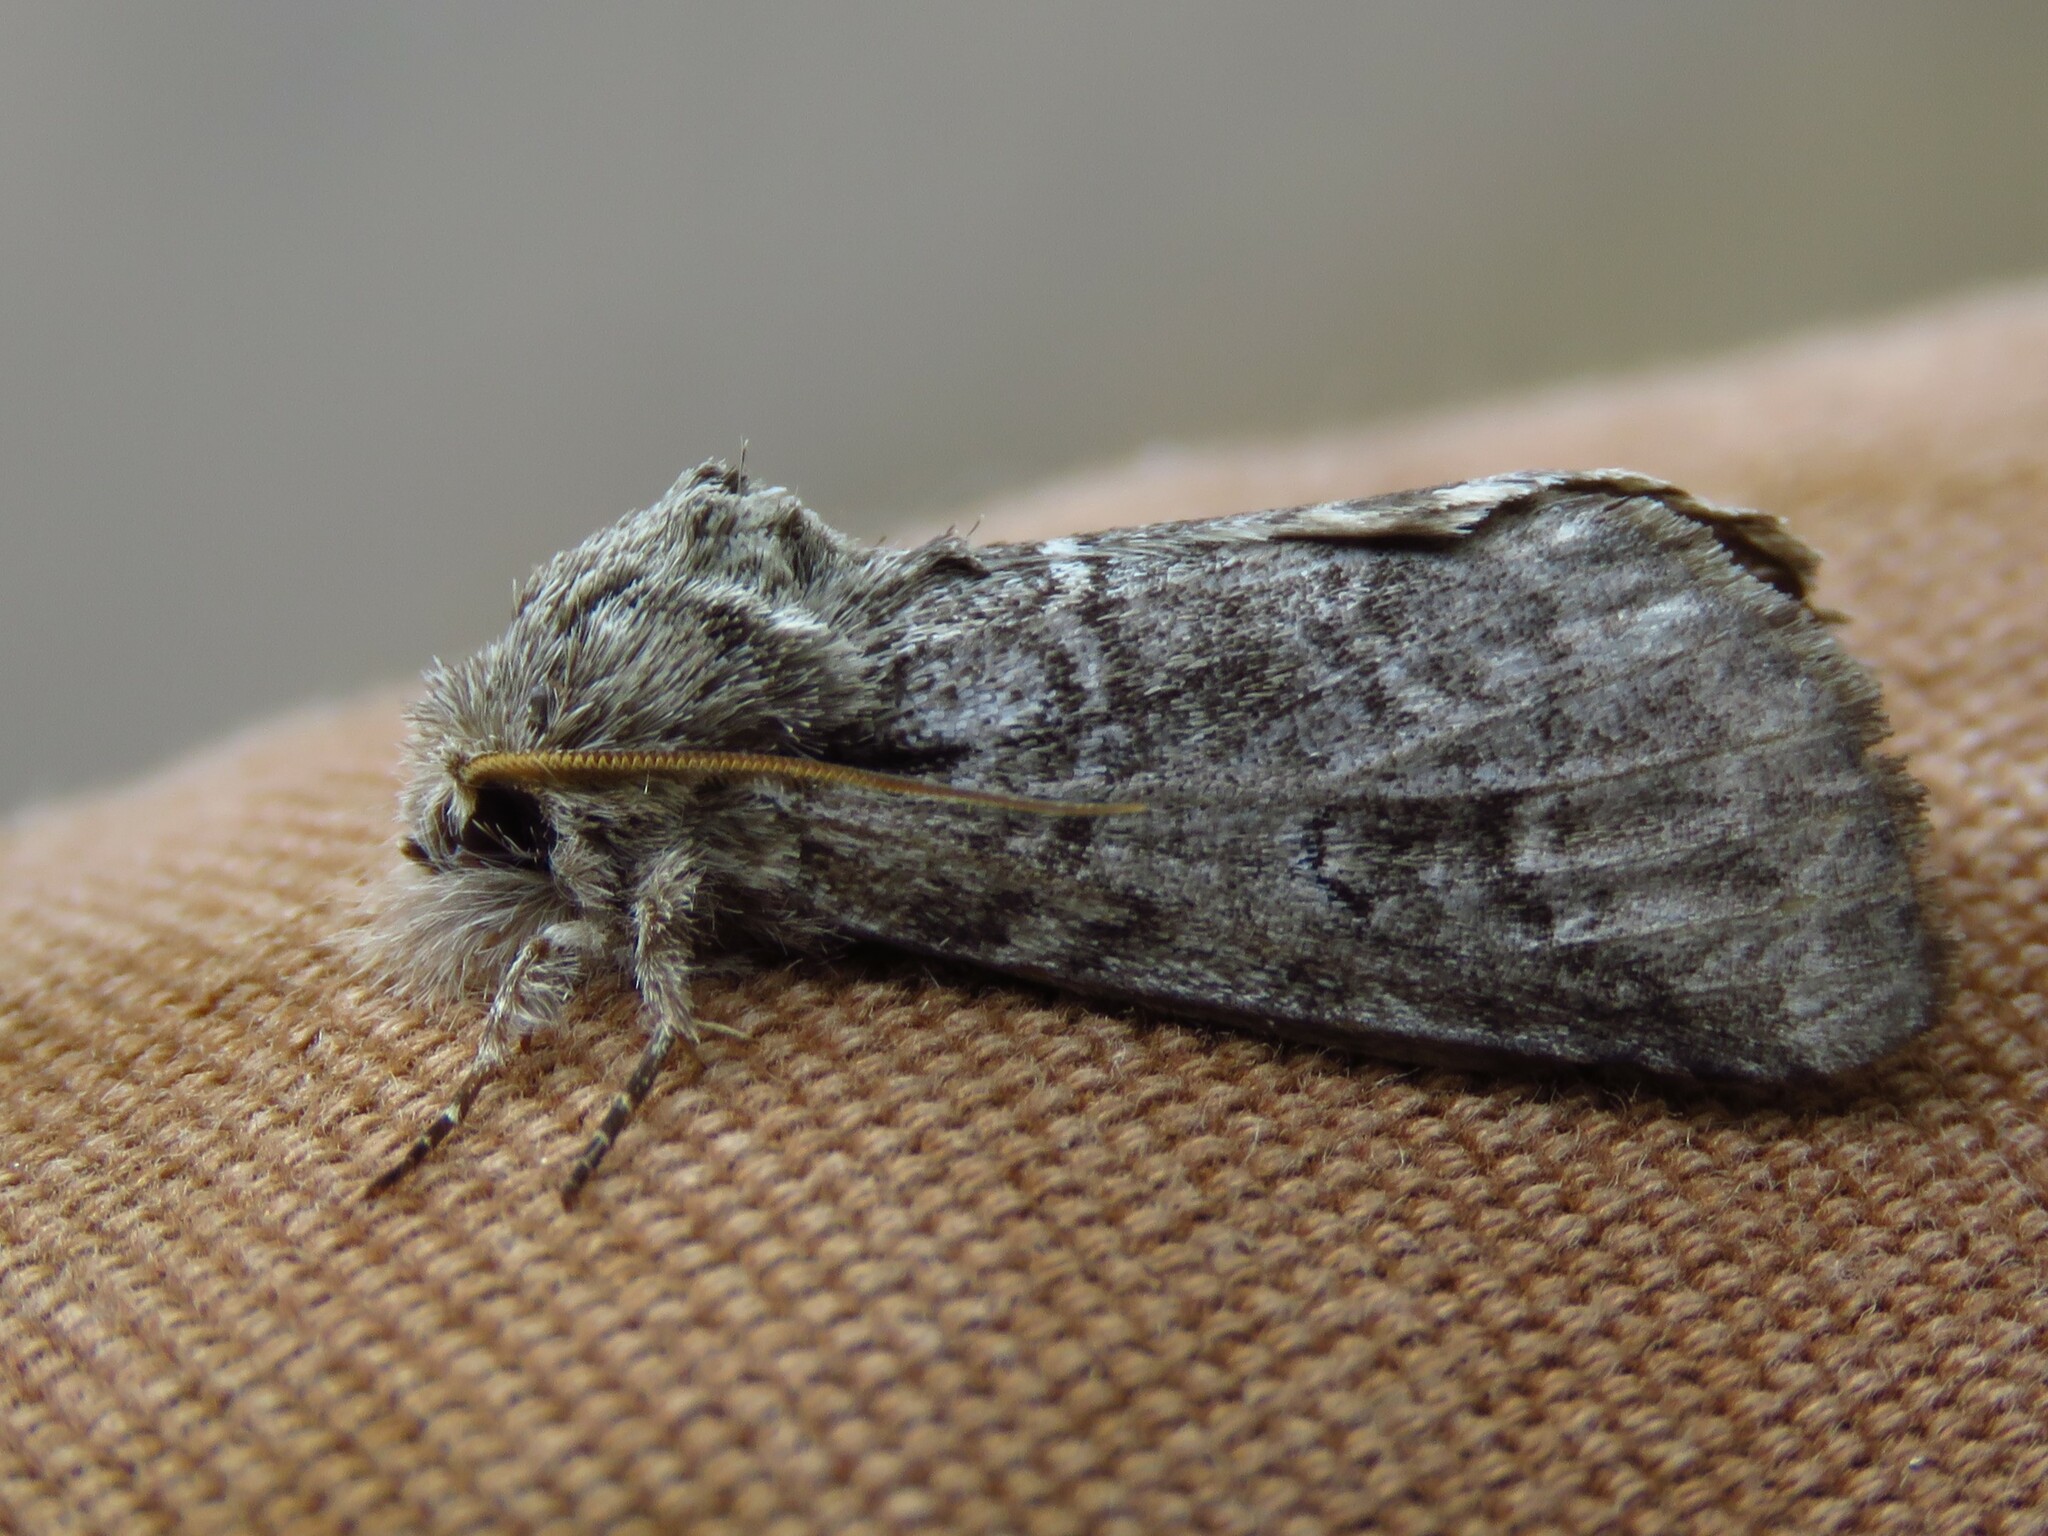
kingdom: Animalia
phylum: Arthropoda
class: Insecta
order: Lepidoptera
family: Notodontidae
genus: Lochmaeus
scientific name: Lochmaeus bilineata
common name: Double-lined prominent
